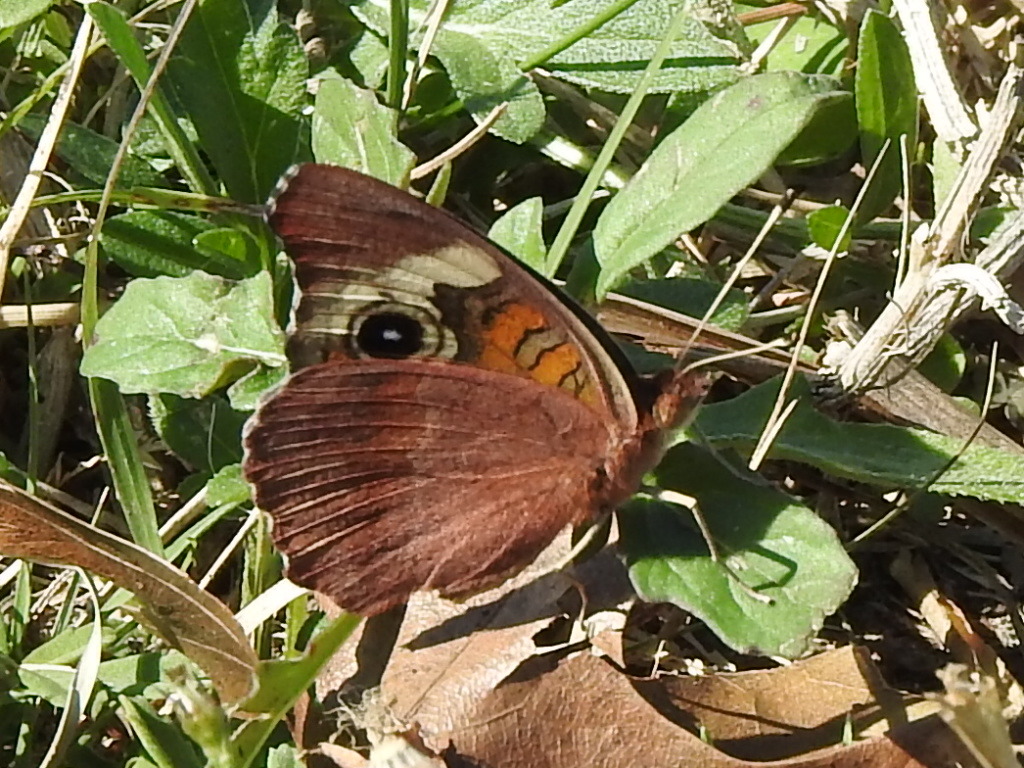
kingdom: Animalia
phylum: Arthropoda
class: Insecta
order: Lepidoptera
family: Nymphalidae
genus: Junonia
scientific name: Junonia coenia
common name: Common buckeye
